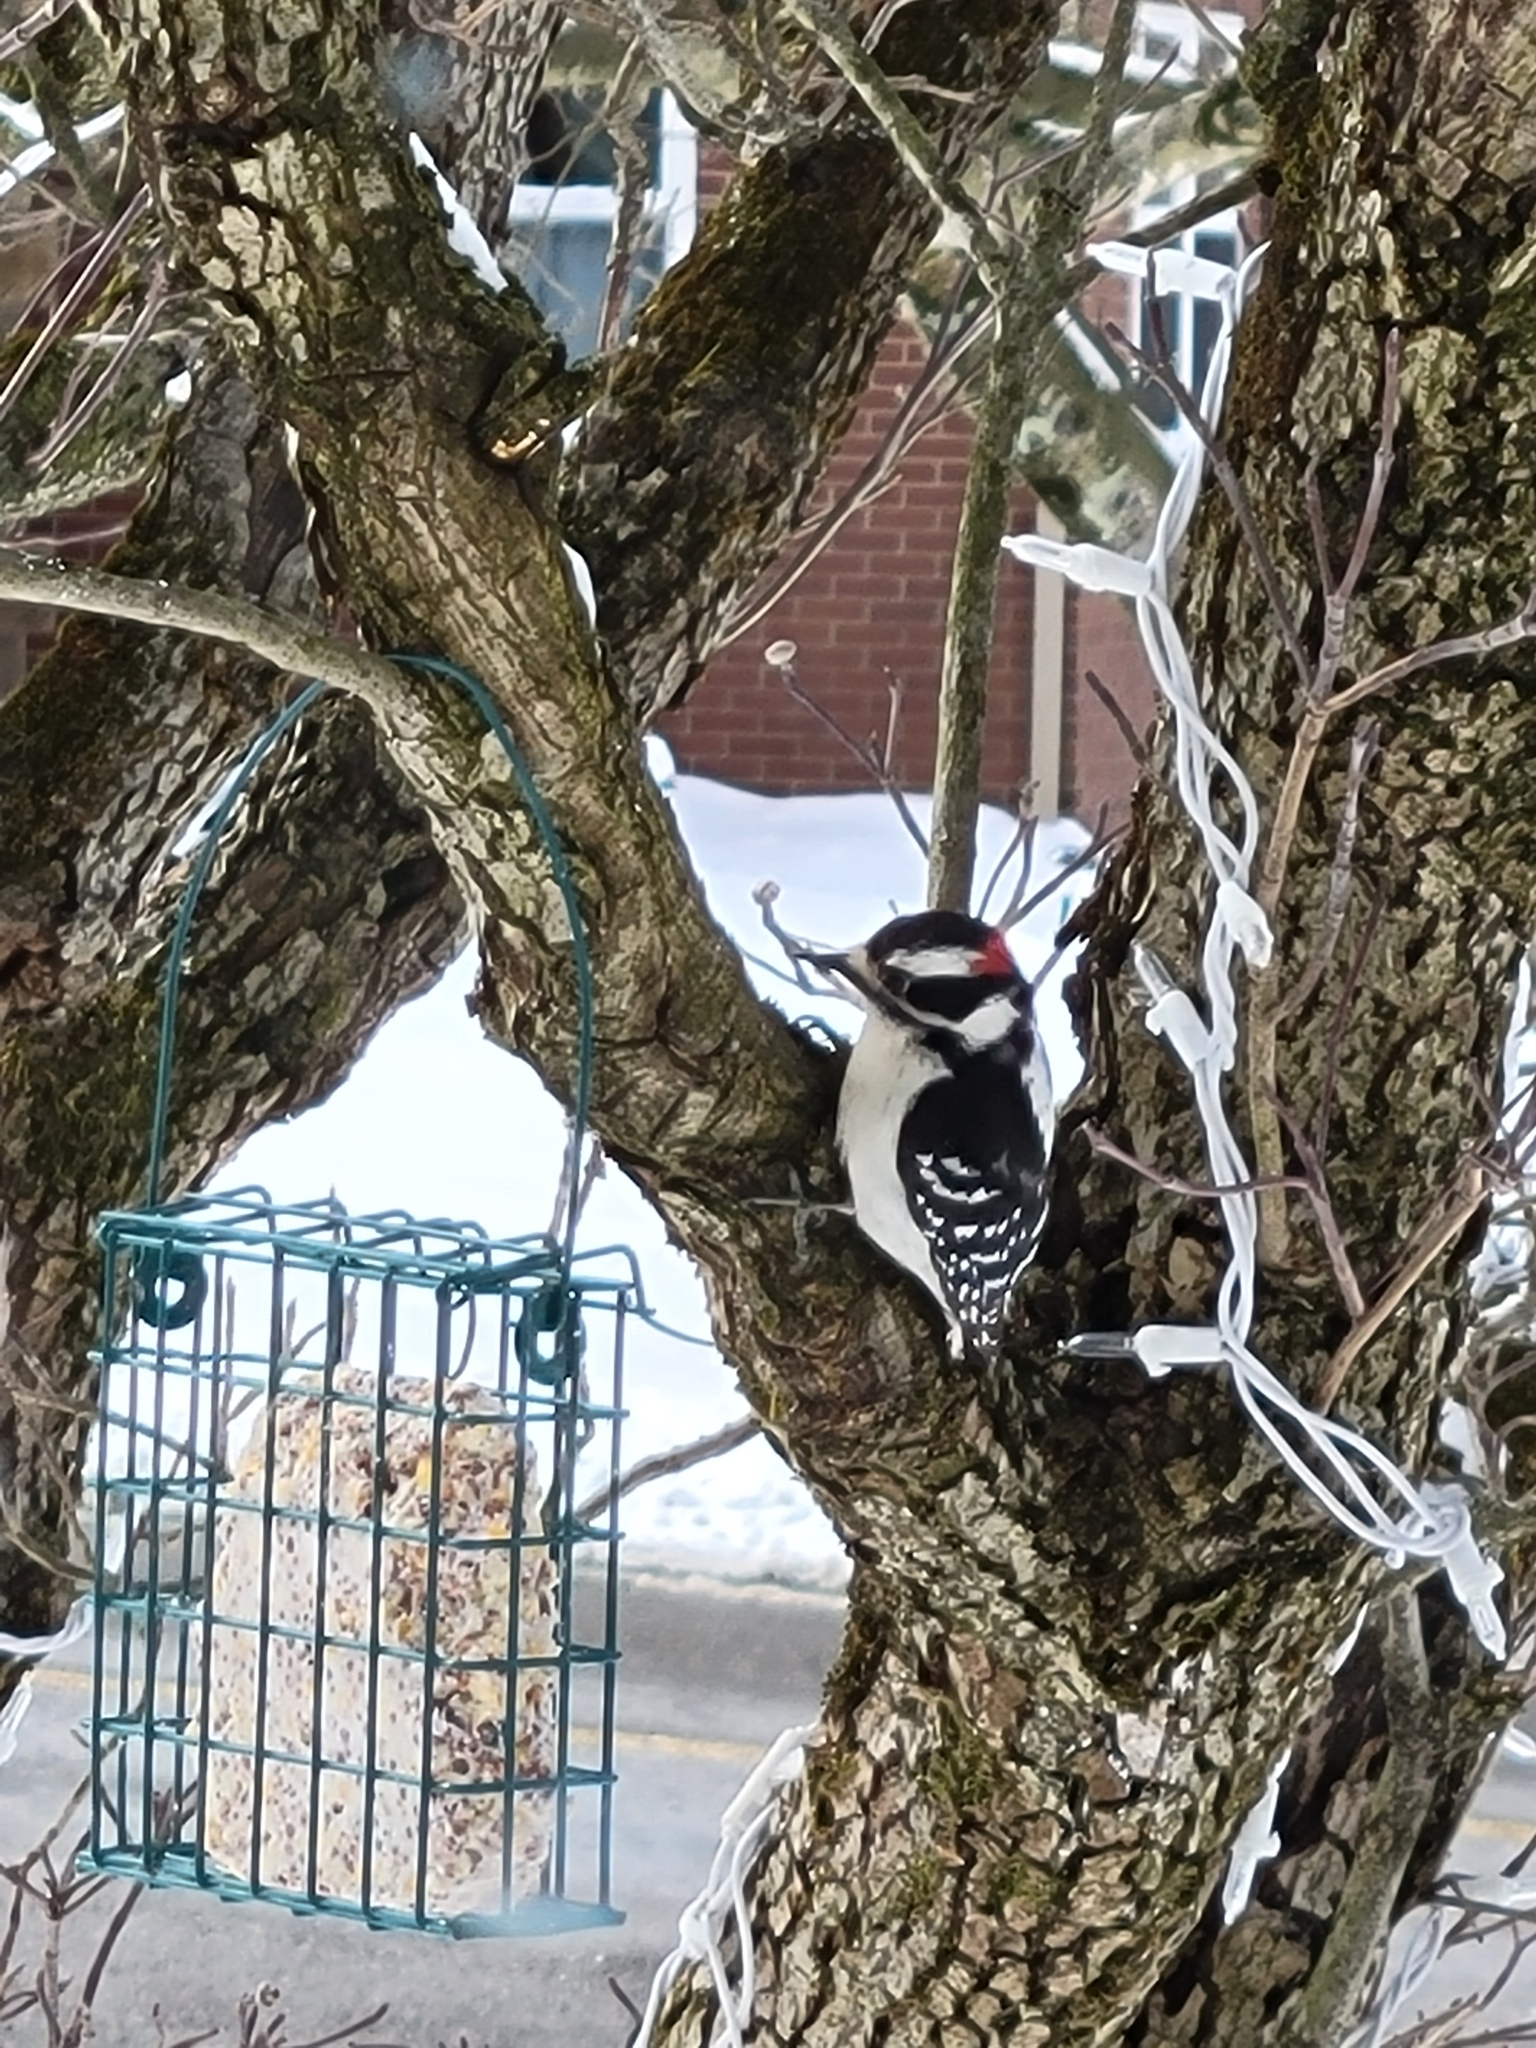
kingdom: Animalia
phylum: Chordata
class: Aves
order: Piciformes
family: Picidae
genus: Dryobates
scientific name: Dryobates pubescens
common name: Downy woodpecker
